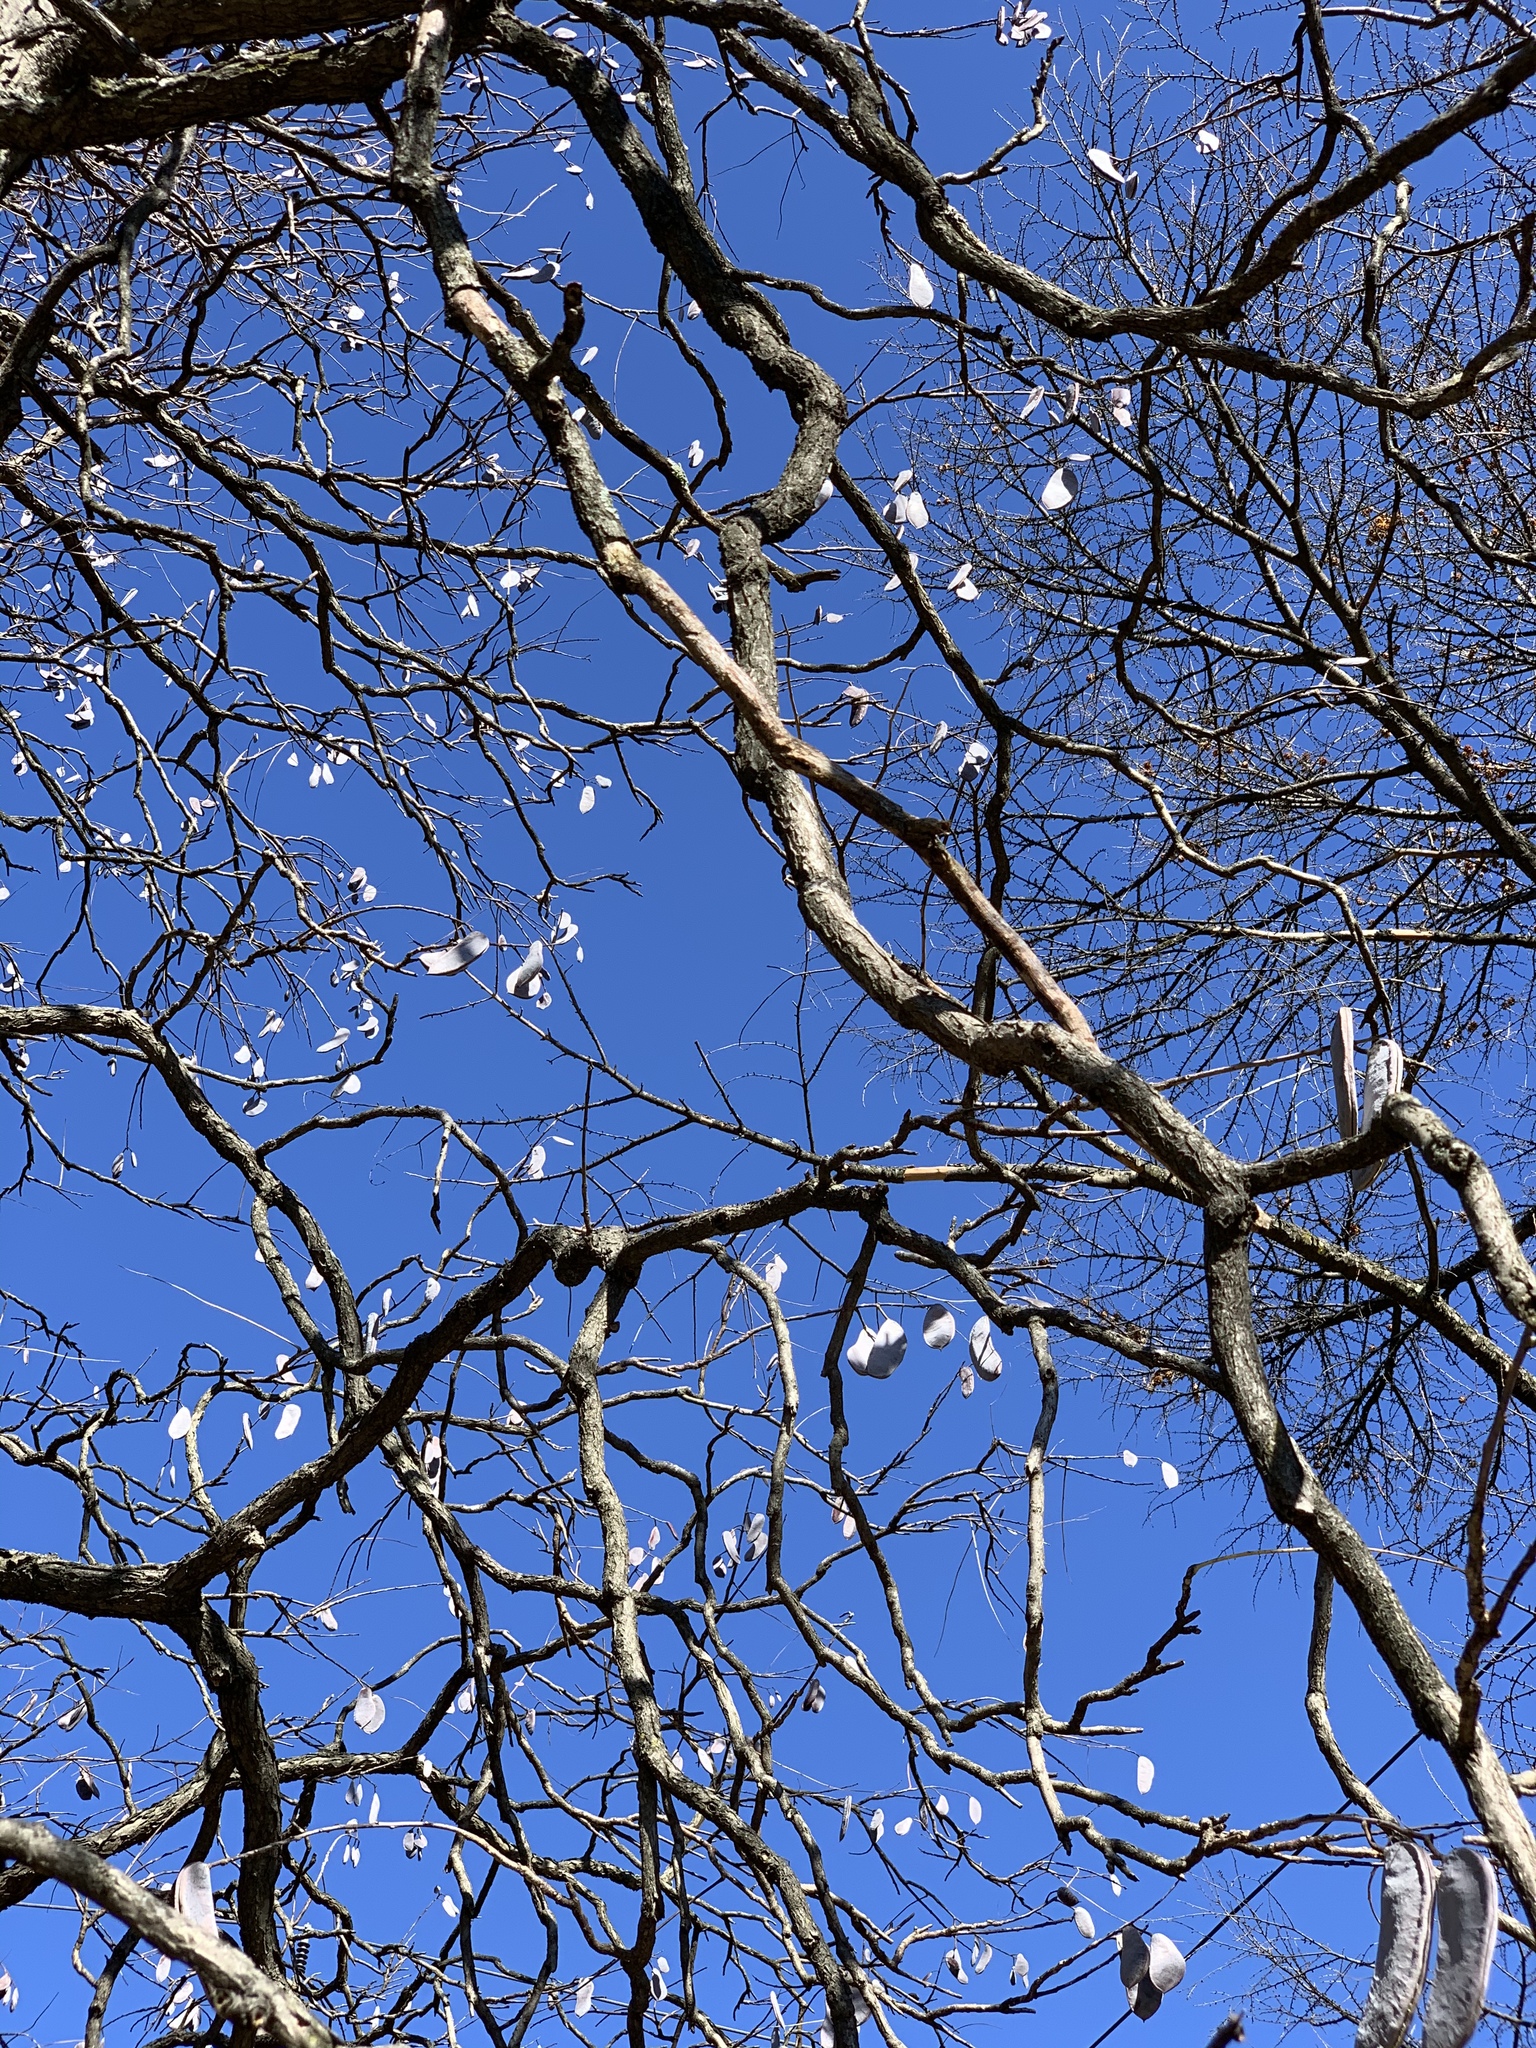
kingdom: Plantae
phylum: Tracheophyta
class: Magnoliopsida
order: Fabales
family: Fabaceae
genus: Gymnocladus
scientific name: Gymnocladus dioicus
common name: Kentucky coffee-tree
